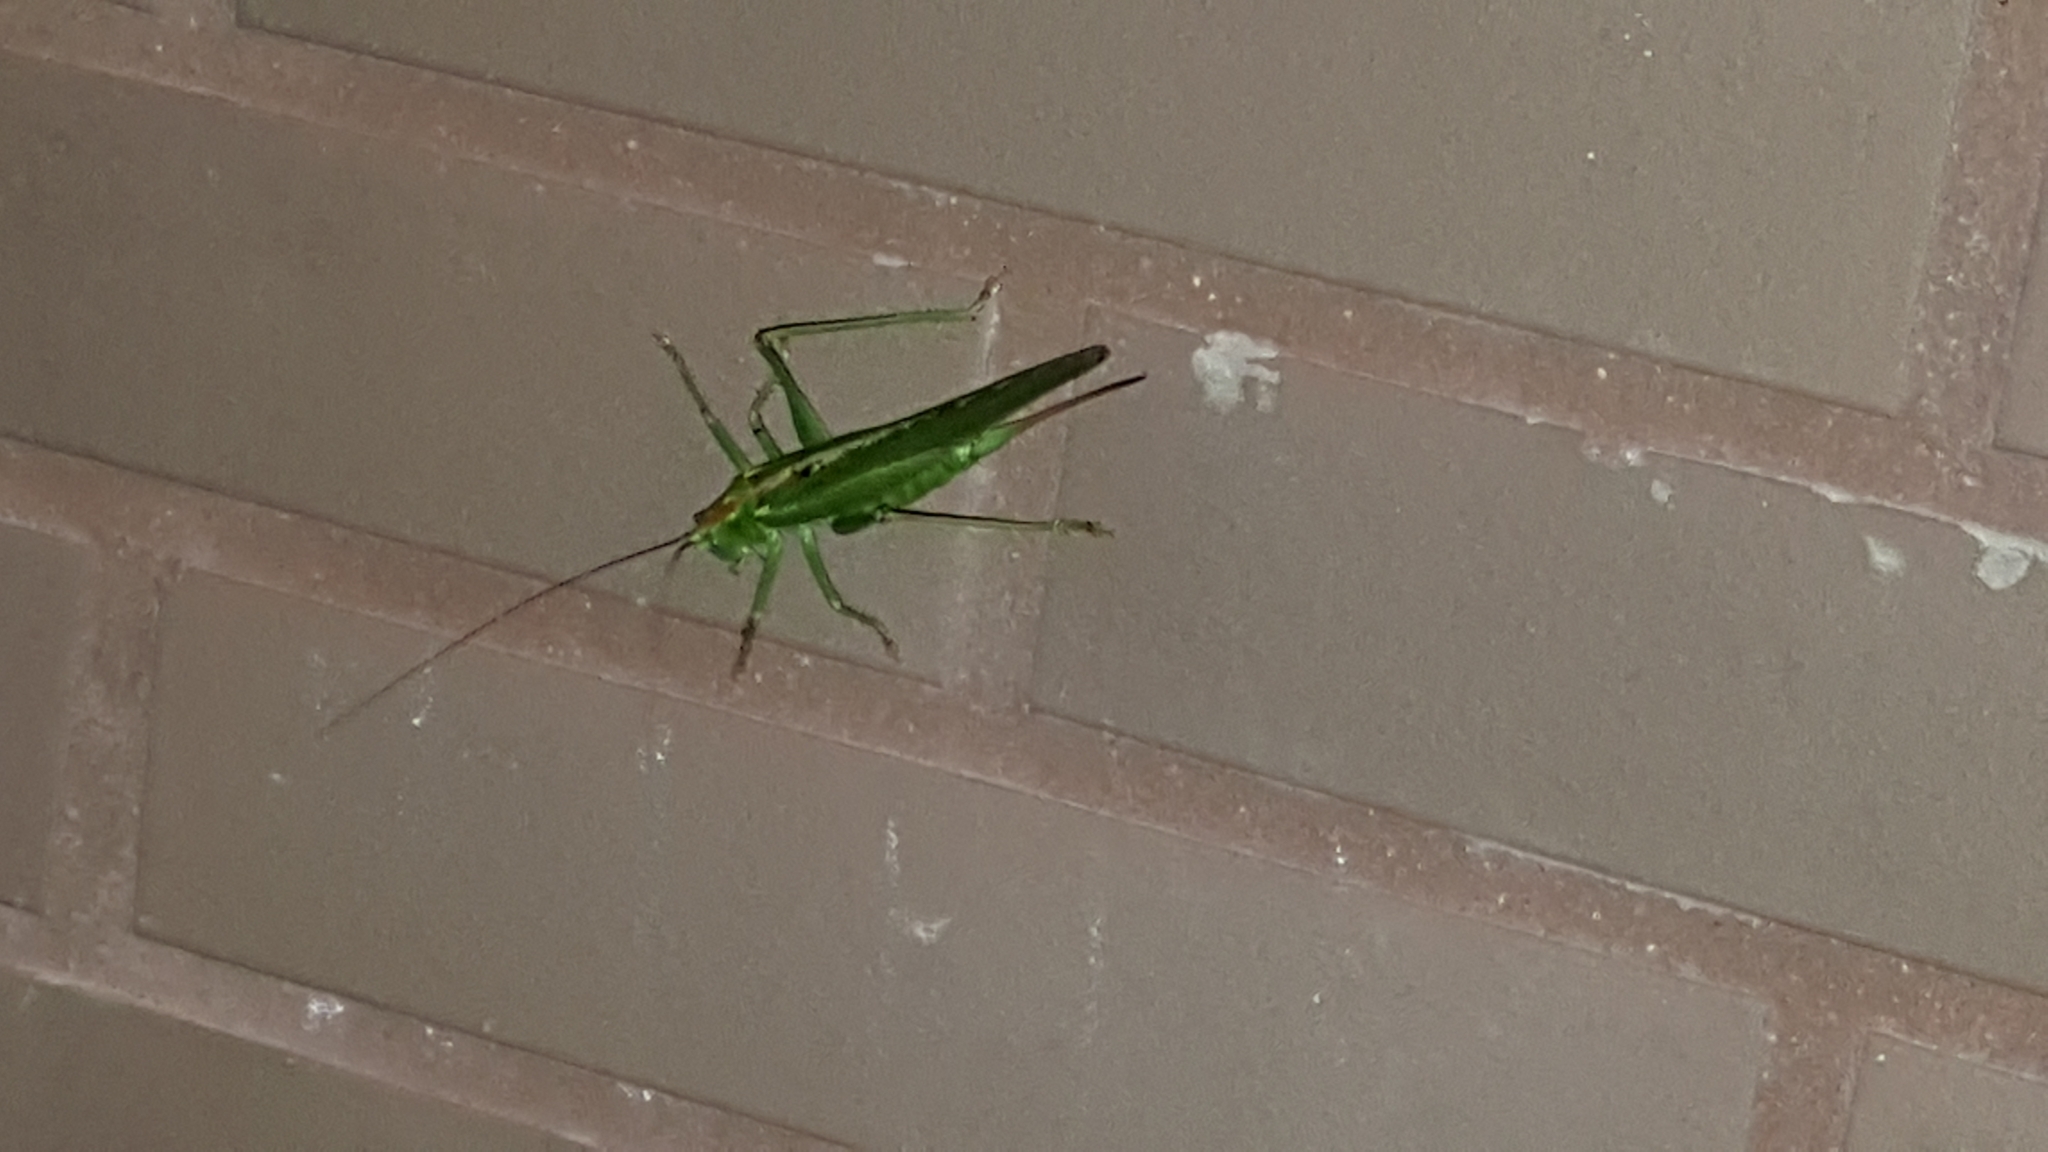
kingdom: Animalia
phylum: Arthropoda
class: Insecta
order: Orthoptera
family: Tettigoniidae
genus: Tettigonia
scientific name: Tettigonia viridissima
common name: Great green bush-cricket
